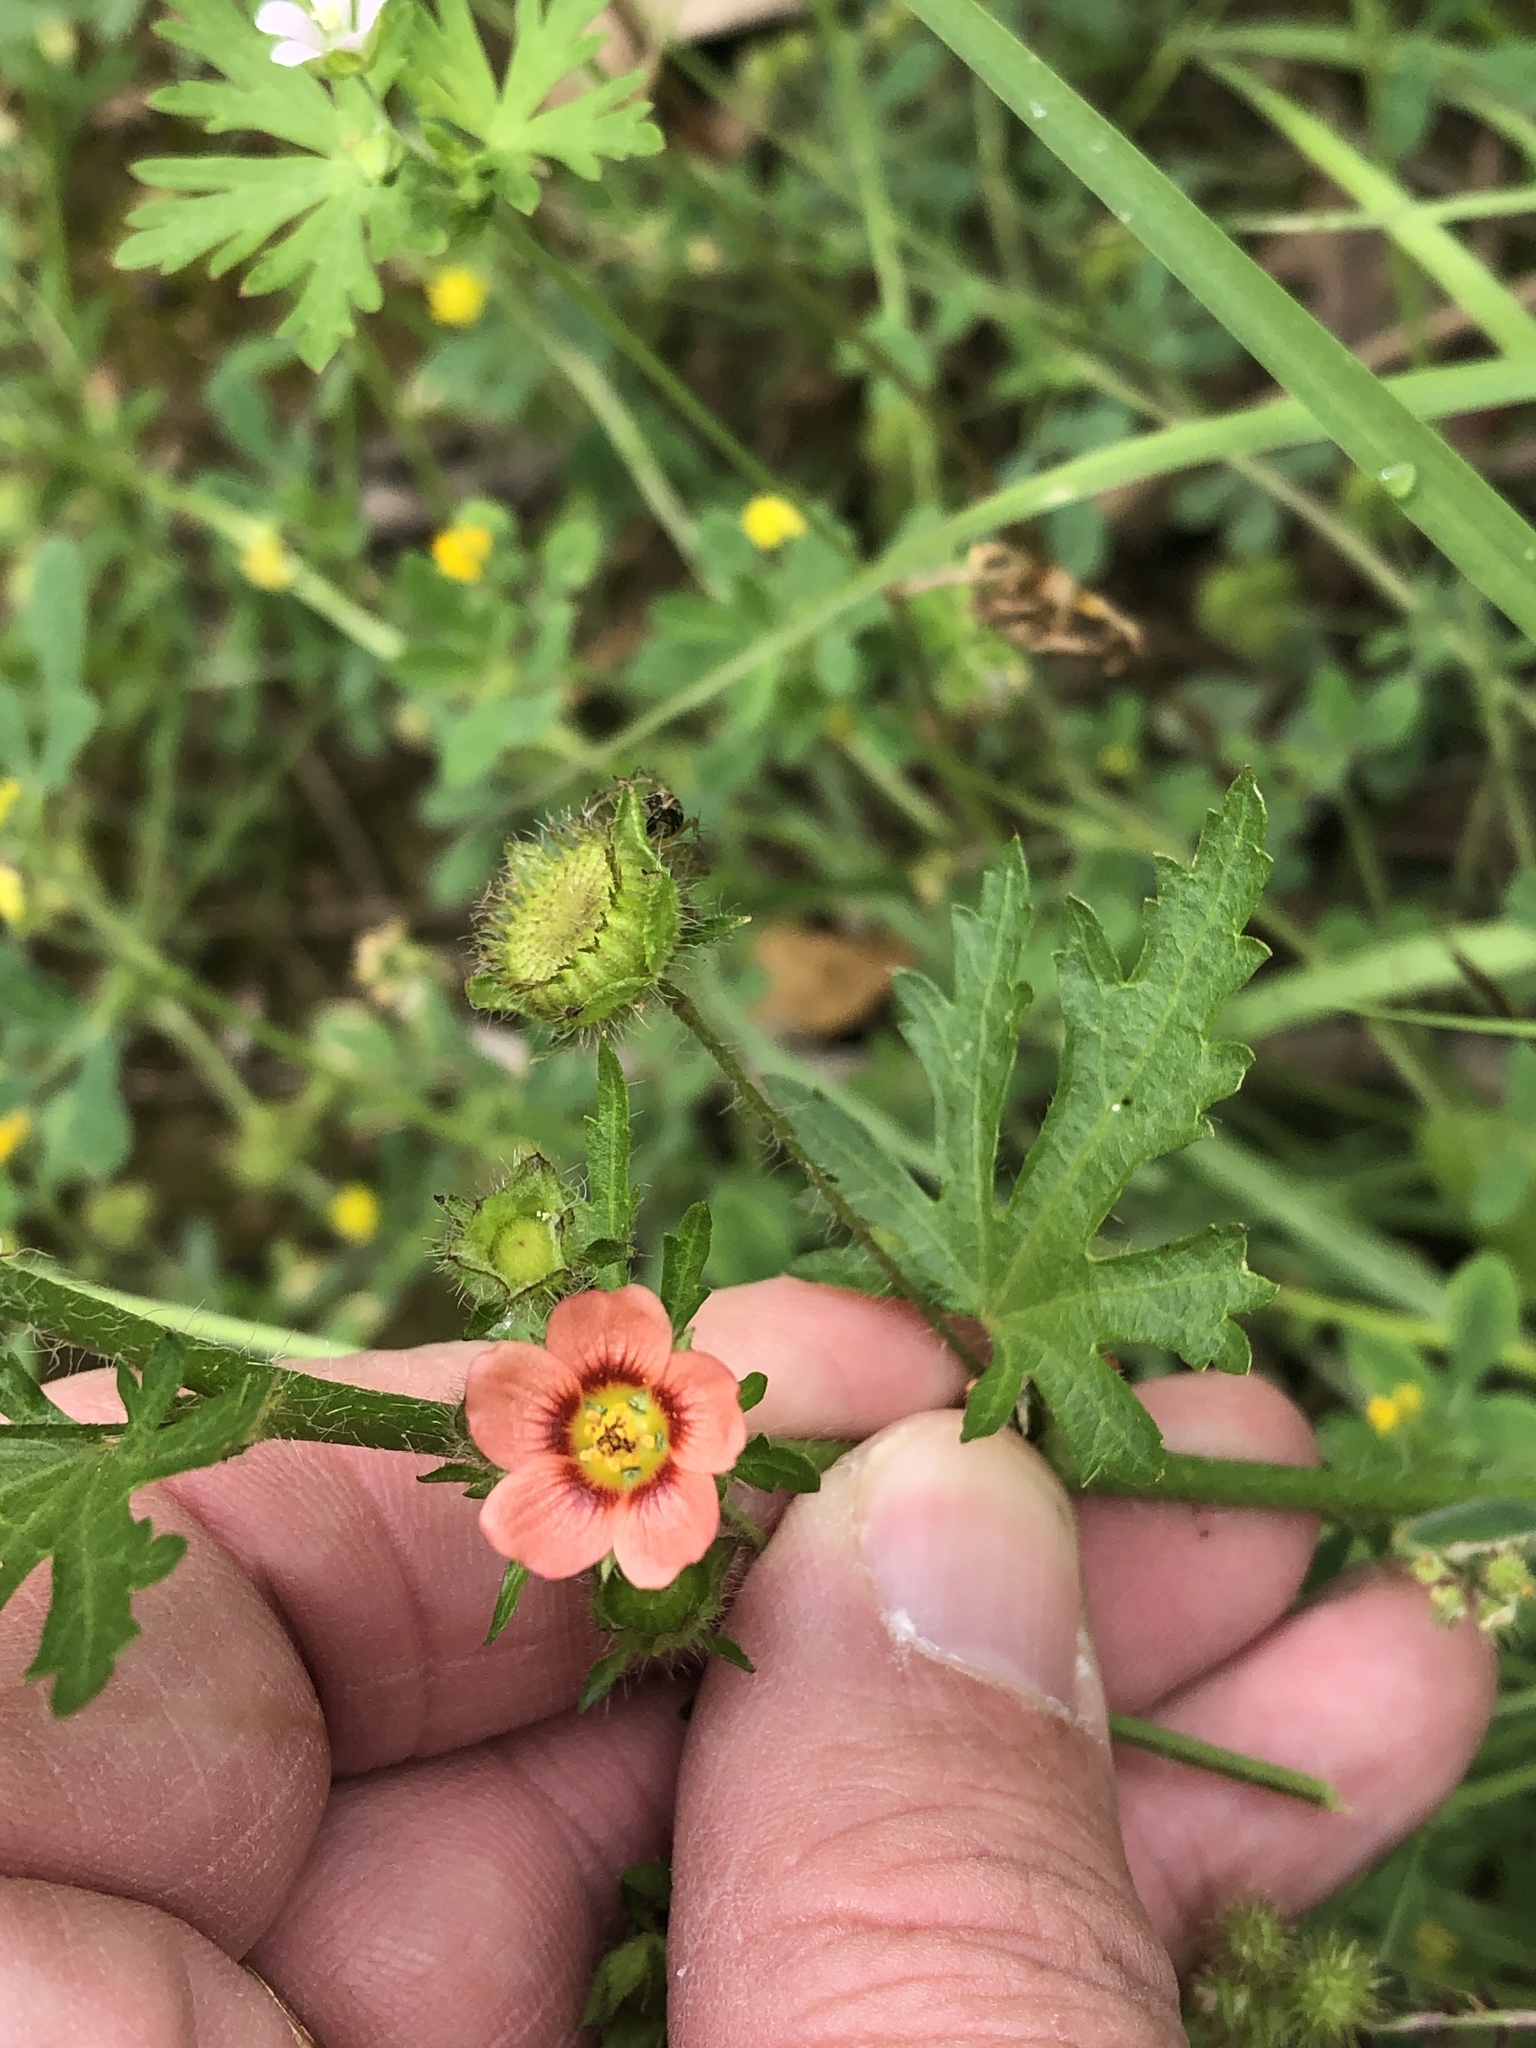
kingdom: Plantae
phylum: Tracheophyta
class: Magnoliopsida
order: Malvales
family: Malvaceae
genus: Modiola
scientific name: Modiola caroliniana
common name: Carolina bristlemallow
